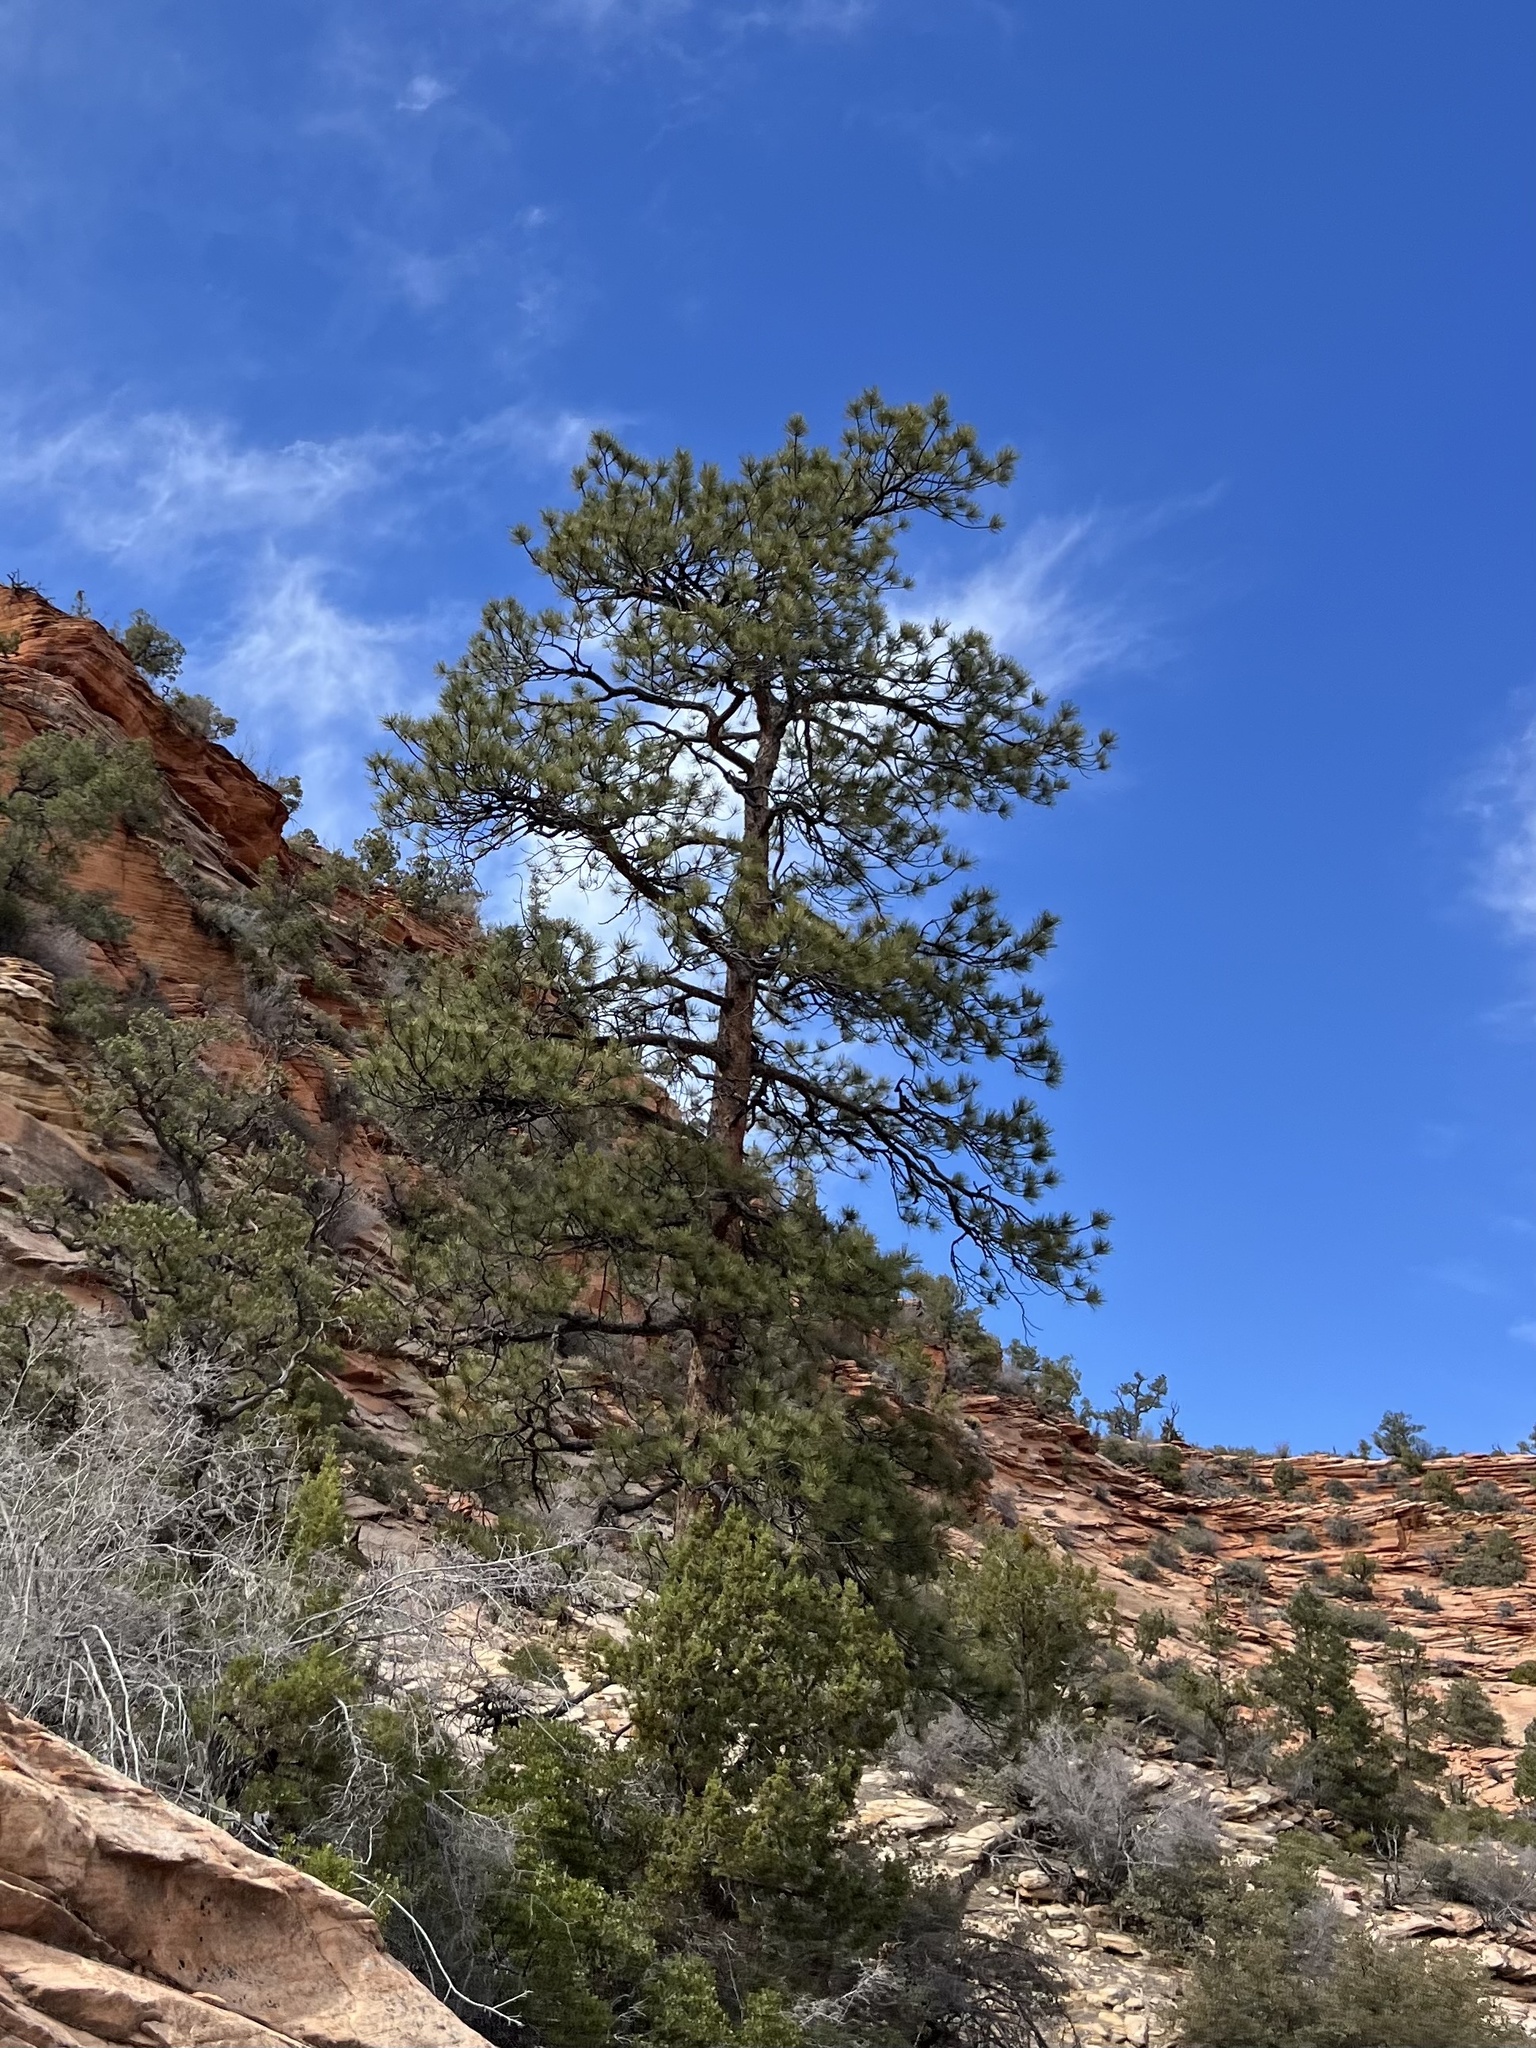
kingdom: Plantae
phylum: Tracheophyta
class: Pinopsida
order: Pinales
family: Pinaceae
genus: Pinus
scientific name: Pinus ponderosa
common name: Western yellow-pine
